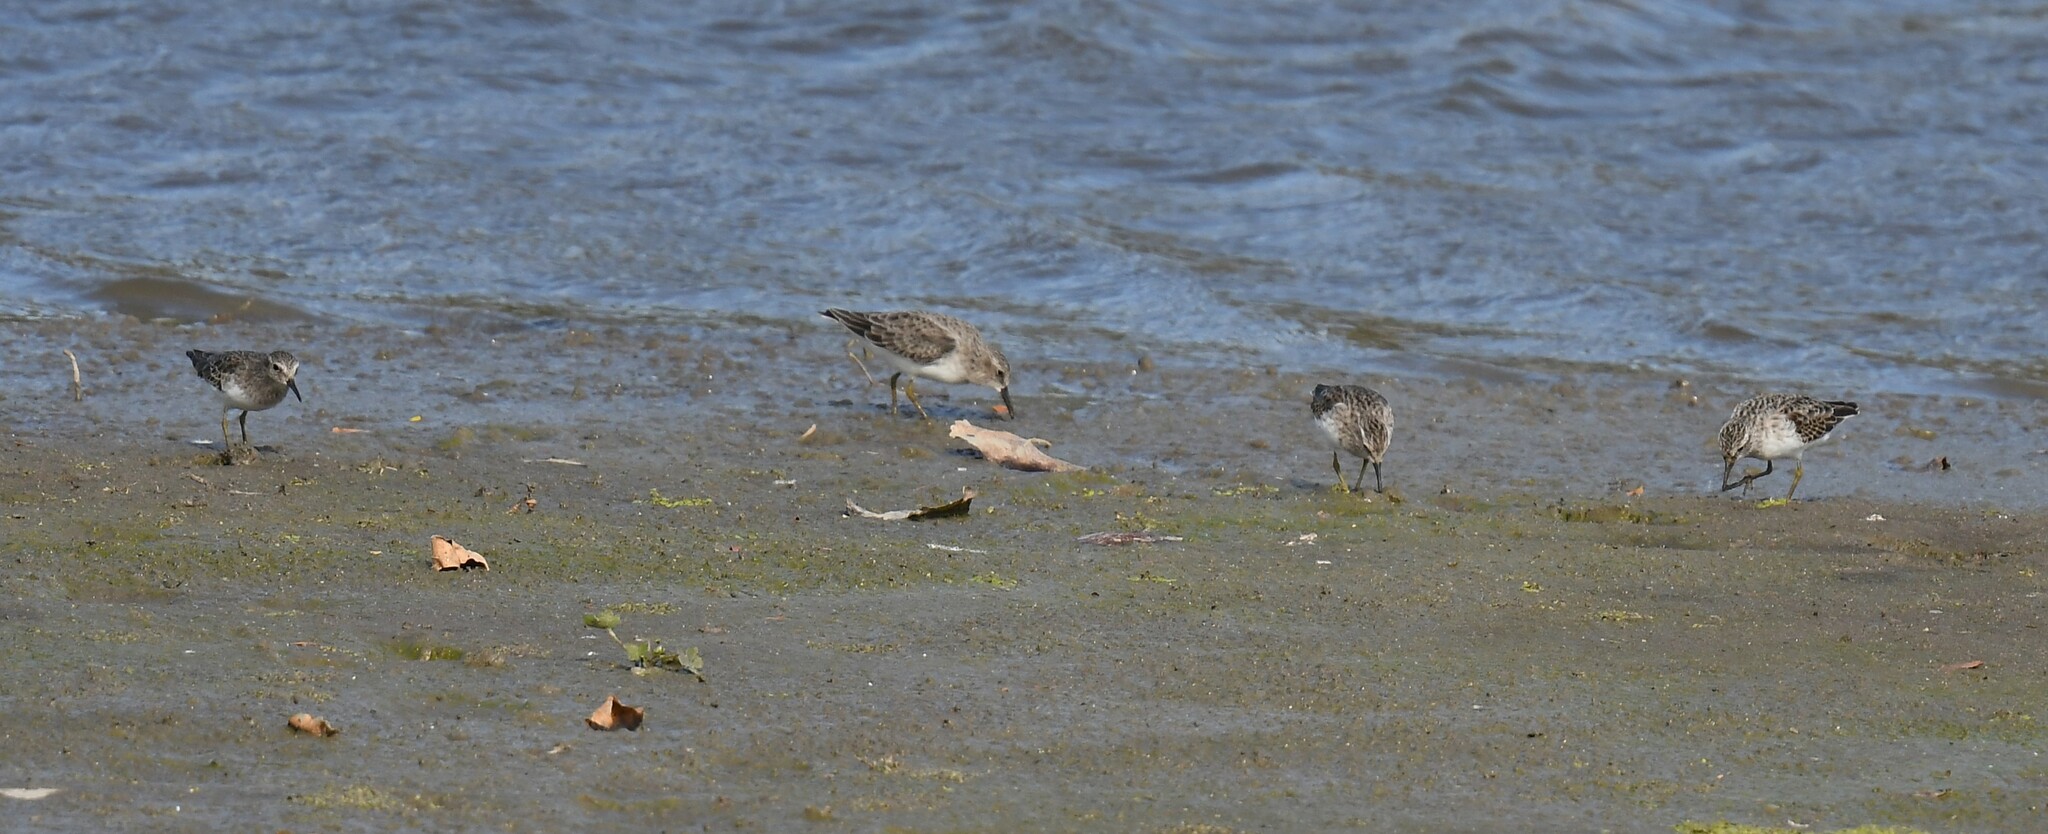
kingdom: Animalia
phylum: Chordata
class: Aves
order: Charadriiformes
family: Scolopacidae
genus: Calidris
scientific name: Calidris minutilla
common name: Least sandpiper
